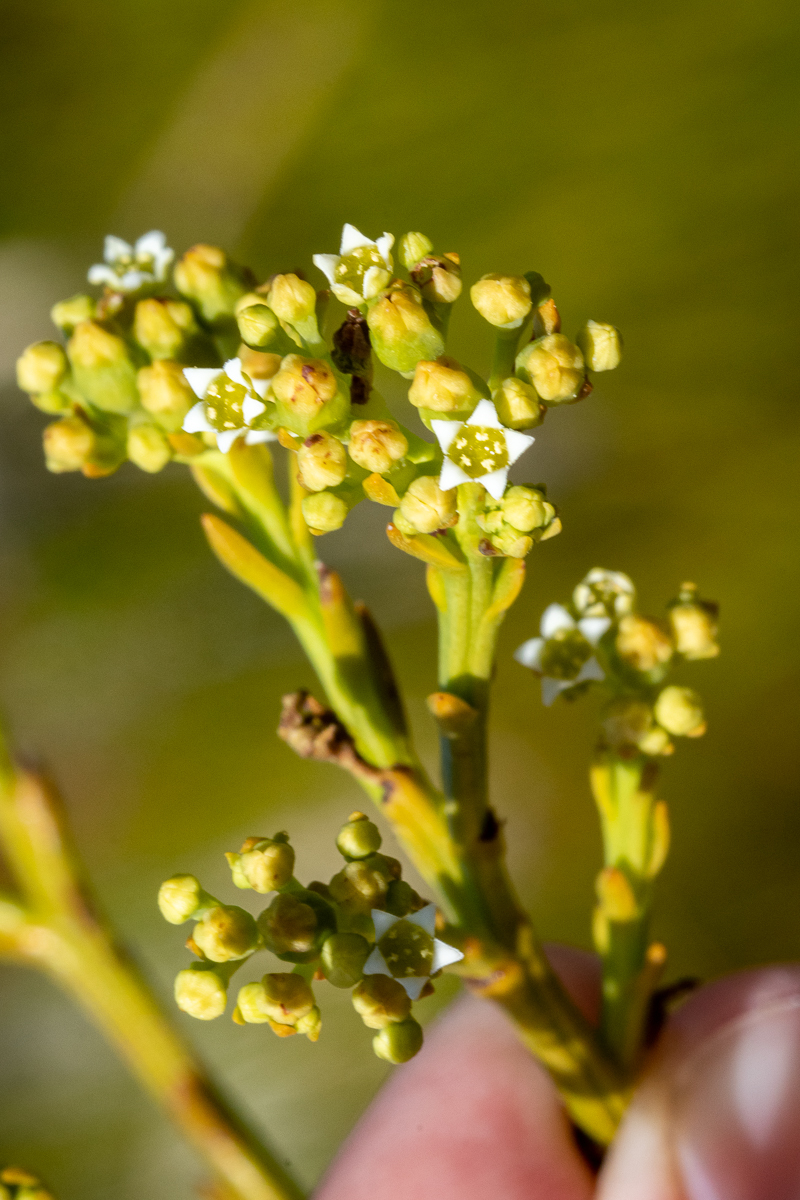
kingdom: Plantae
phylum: Tracheophyta
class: Magnoliopsida
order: Santalales
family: Thesiaceae
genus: Thesium
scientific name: Thesium strictum
